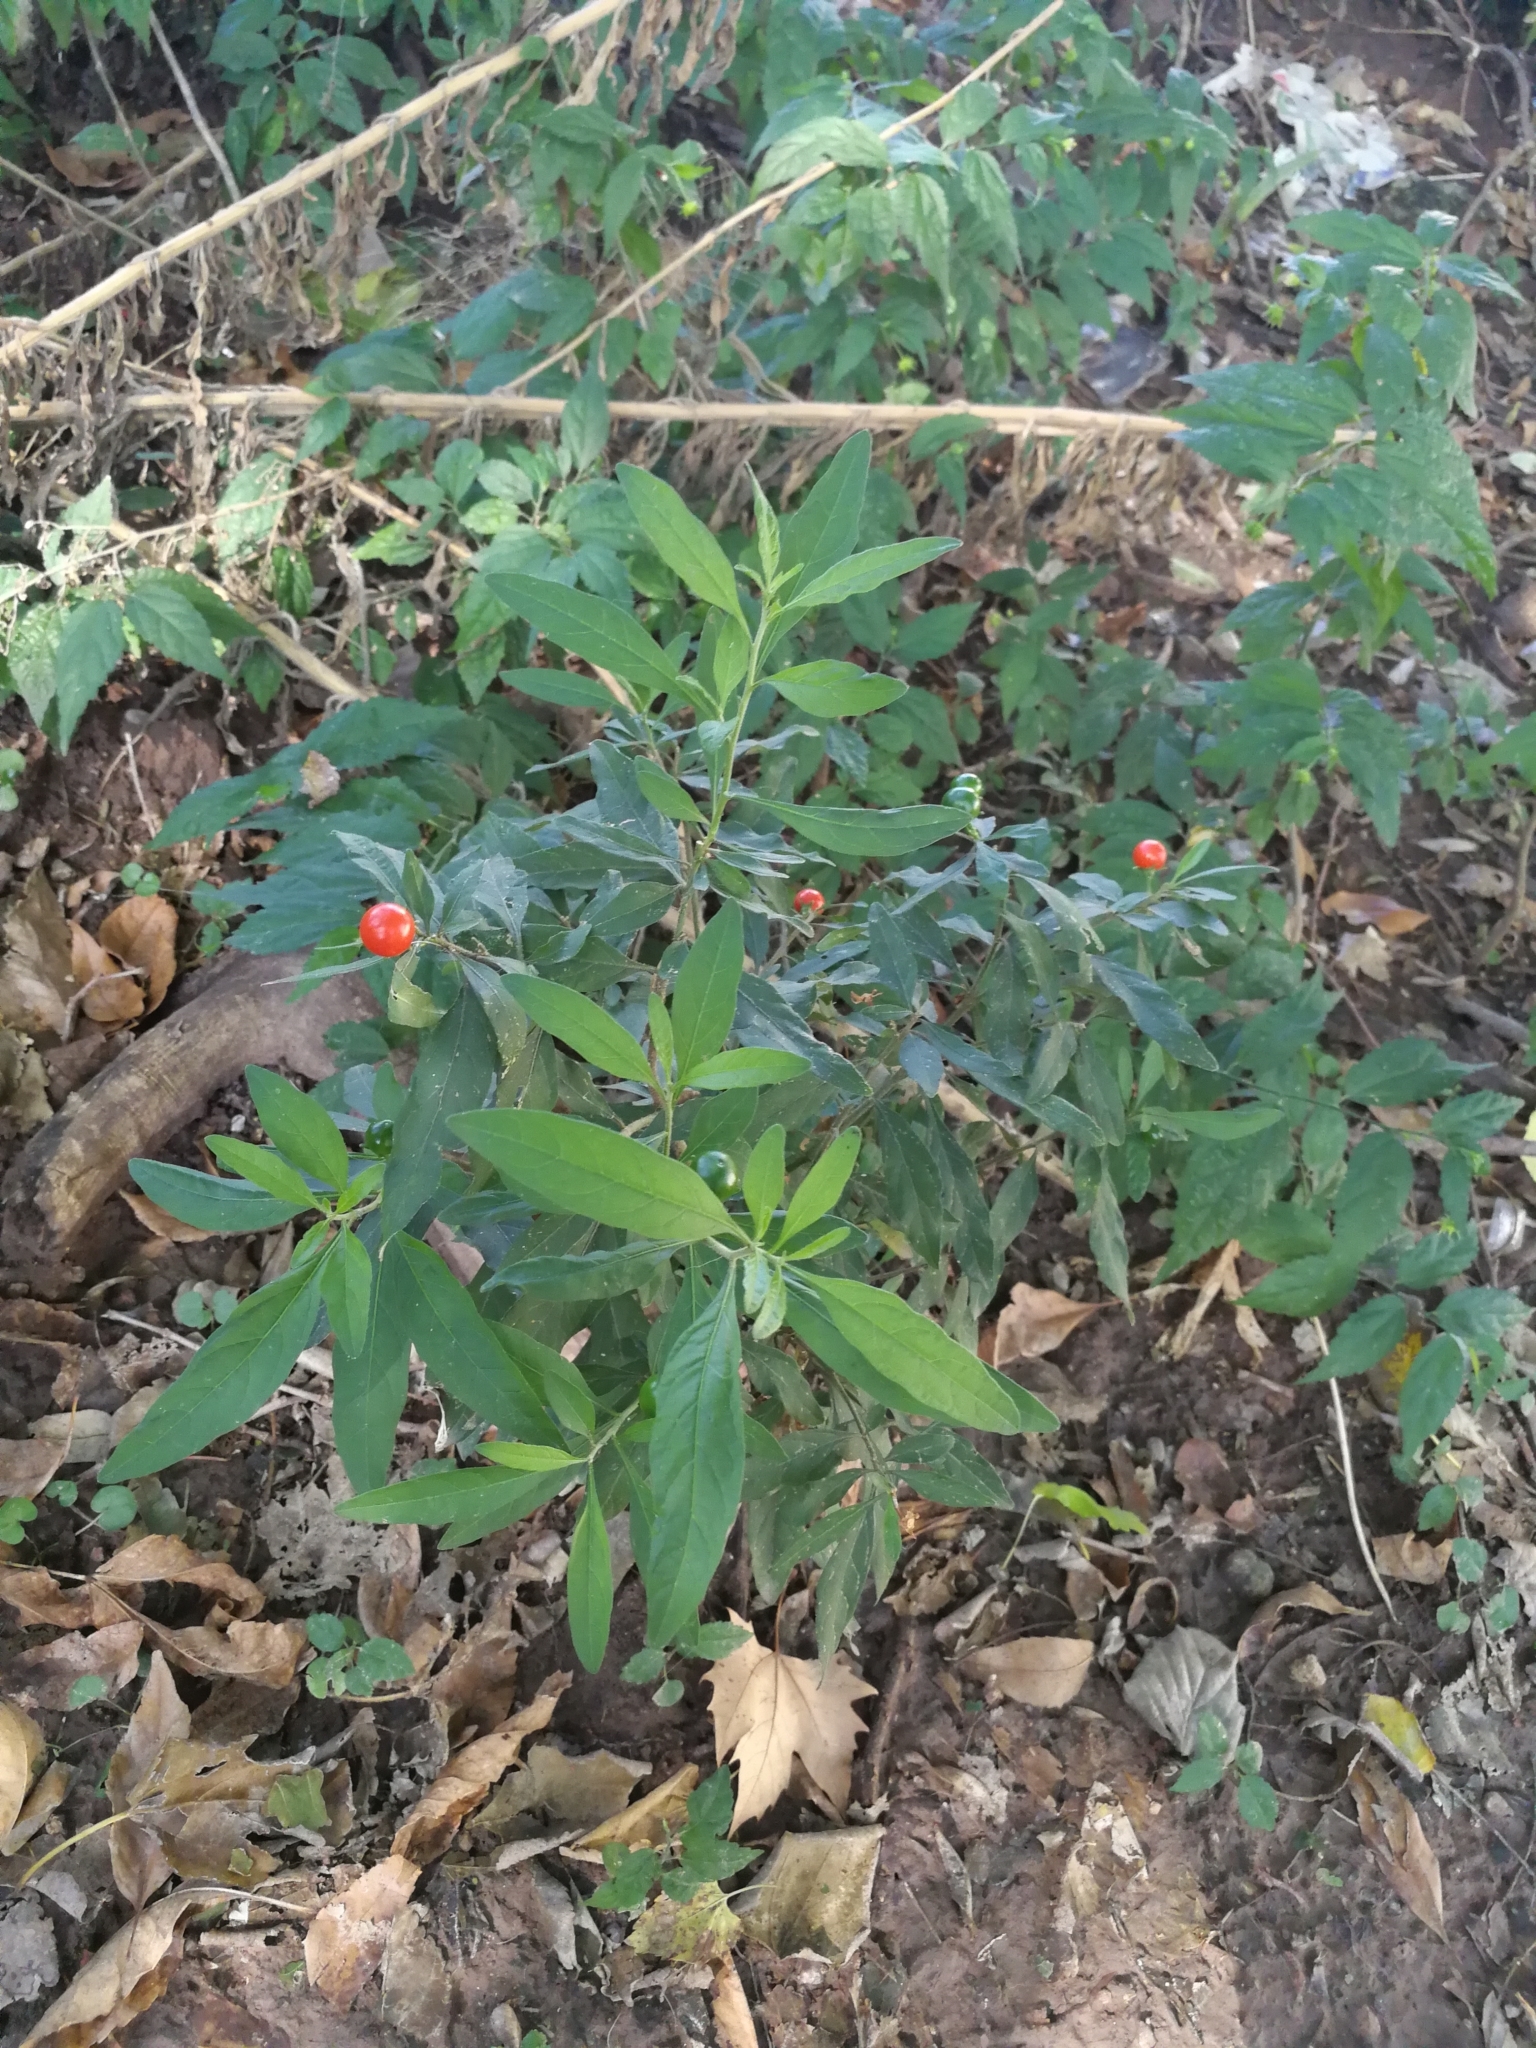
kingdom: Plantae
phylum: Tracheophyta
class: Magnoliopsida
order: Solanales
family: Solanaceae
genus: Solanum
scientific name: Solanum pseudocapsicum
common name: Jerusalem cherry
